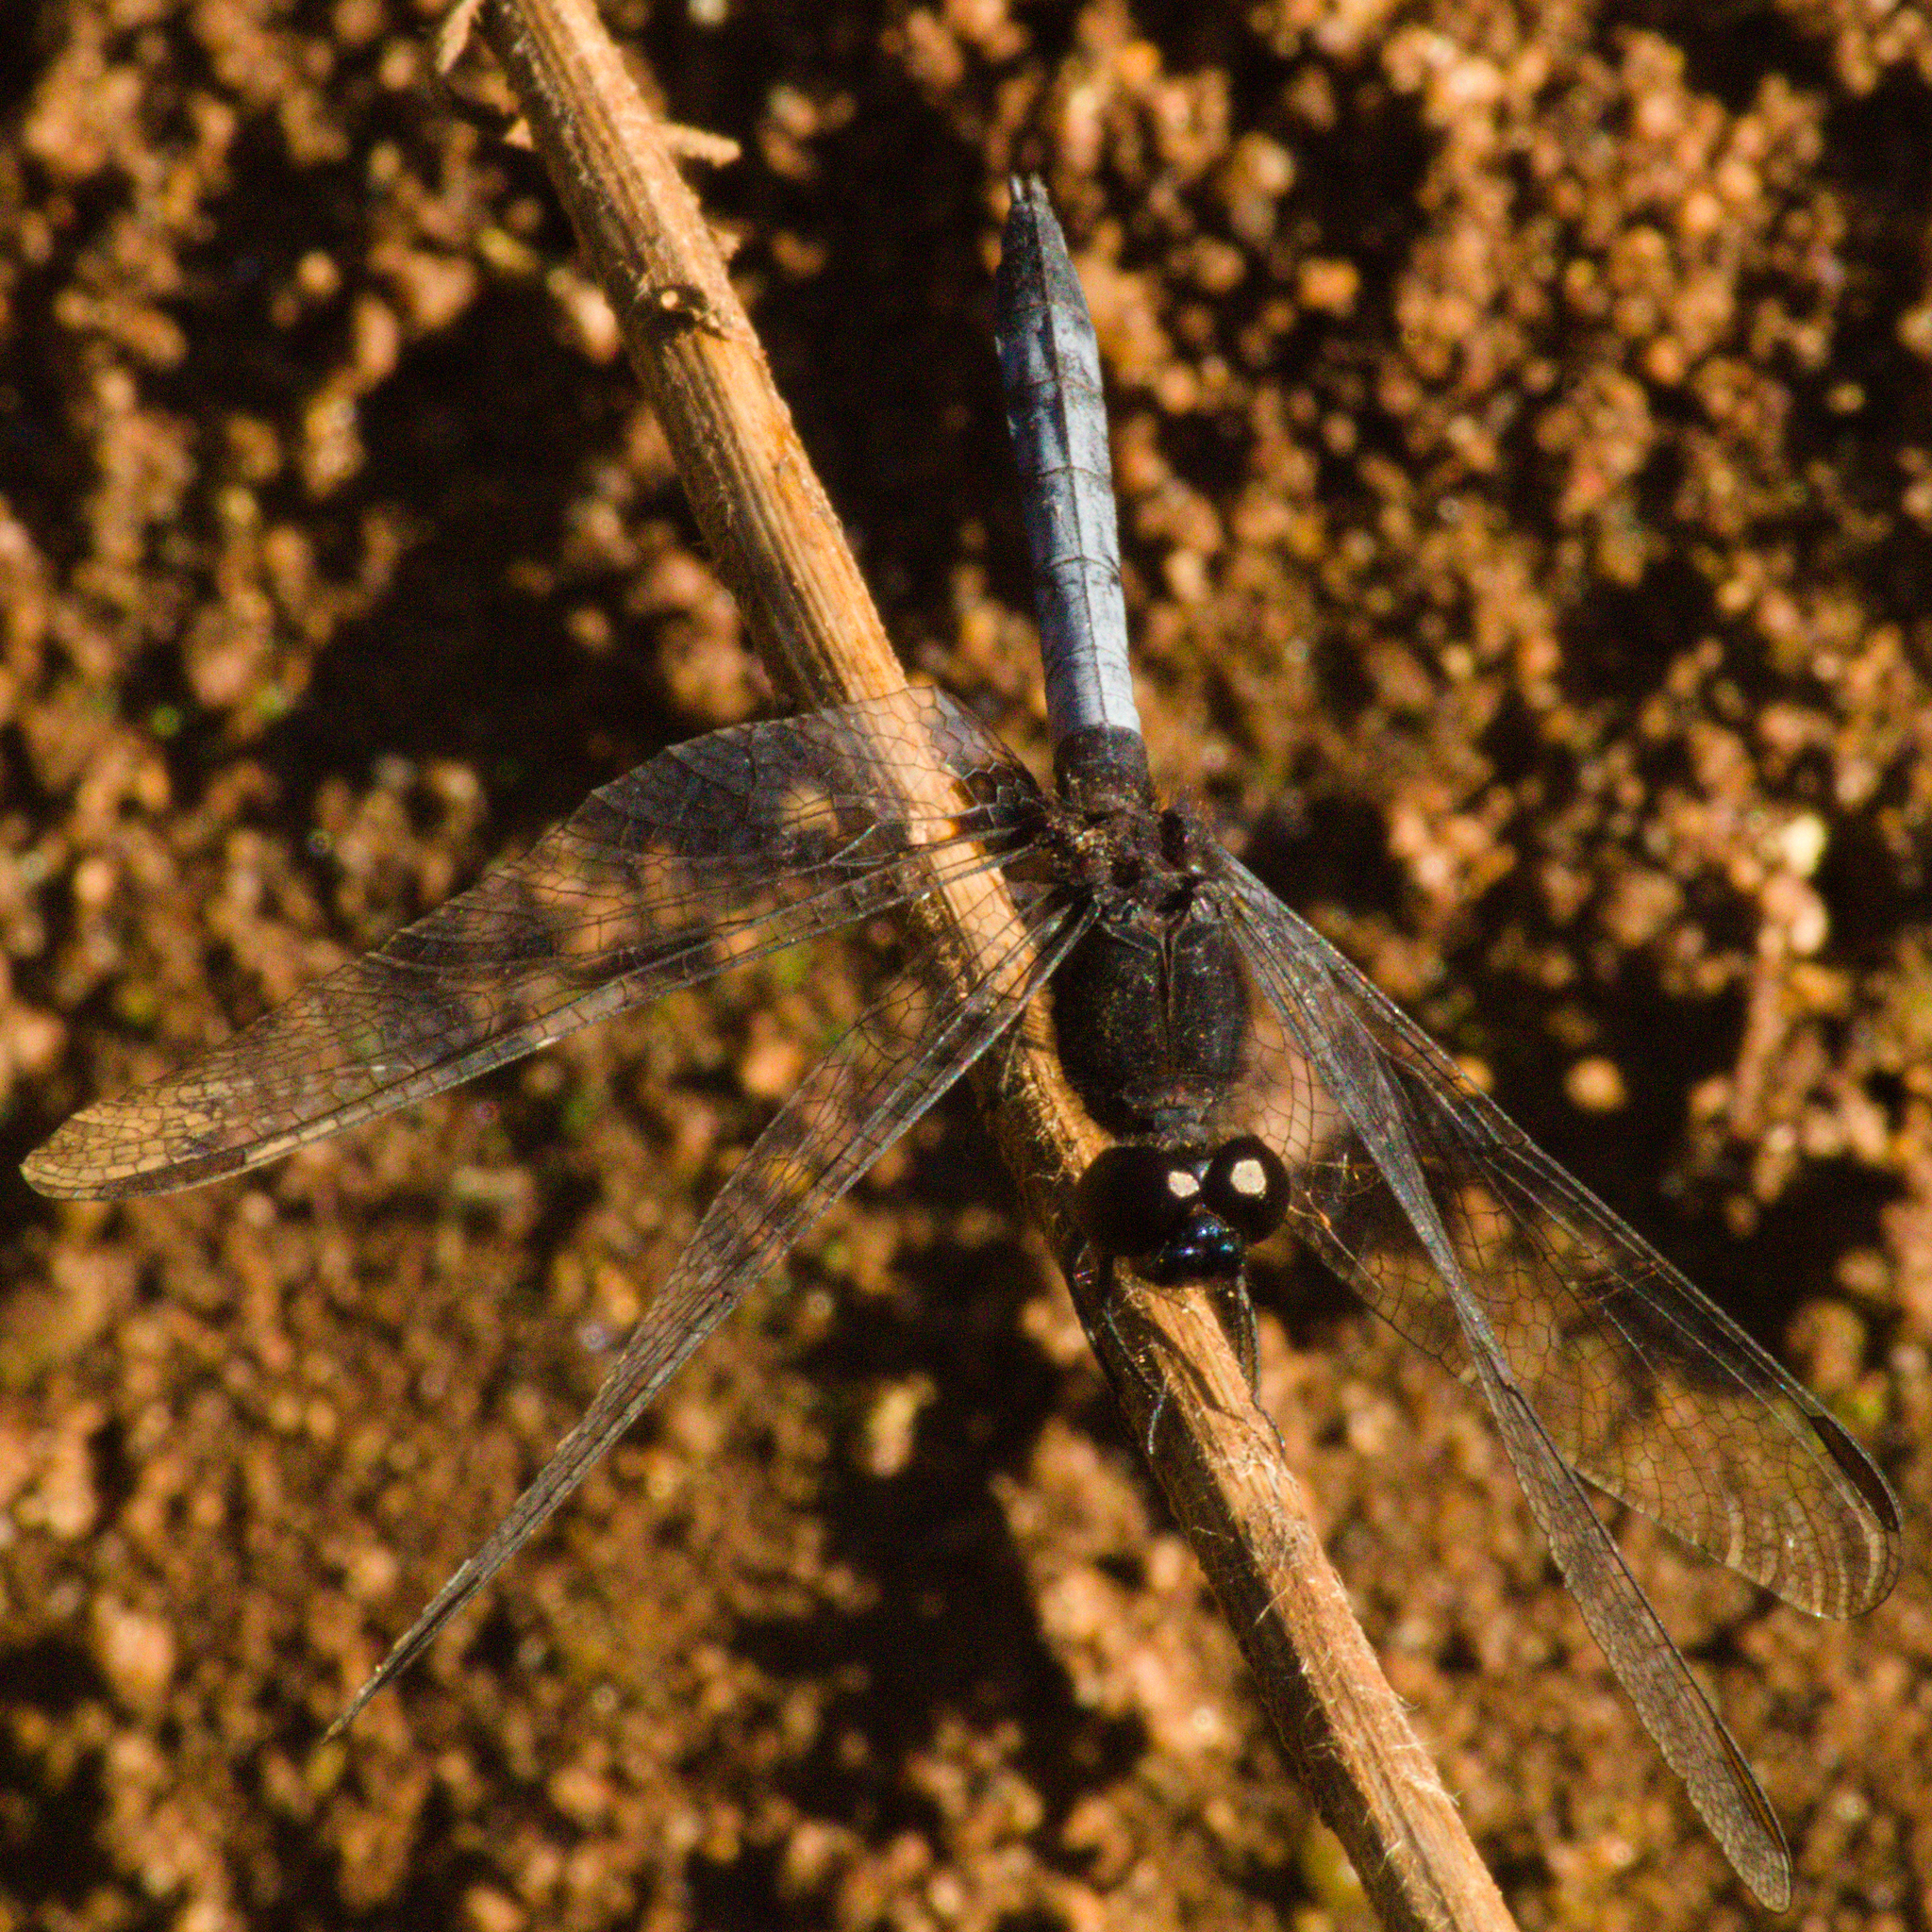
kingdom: Animalia
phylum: Arthropoda
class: Insecta
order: Odonata
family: Libellulidae
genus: Erythrodiplax
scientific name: Erythrodiplax media
